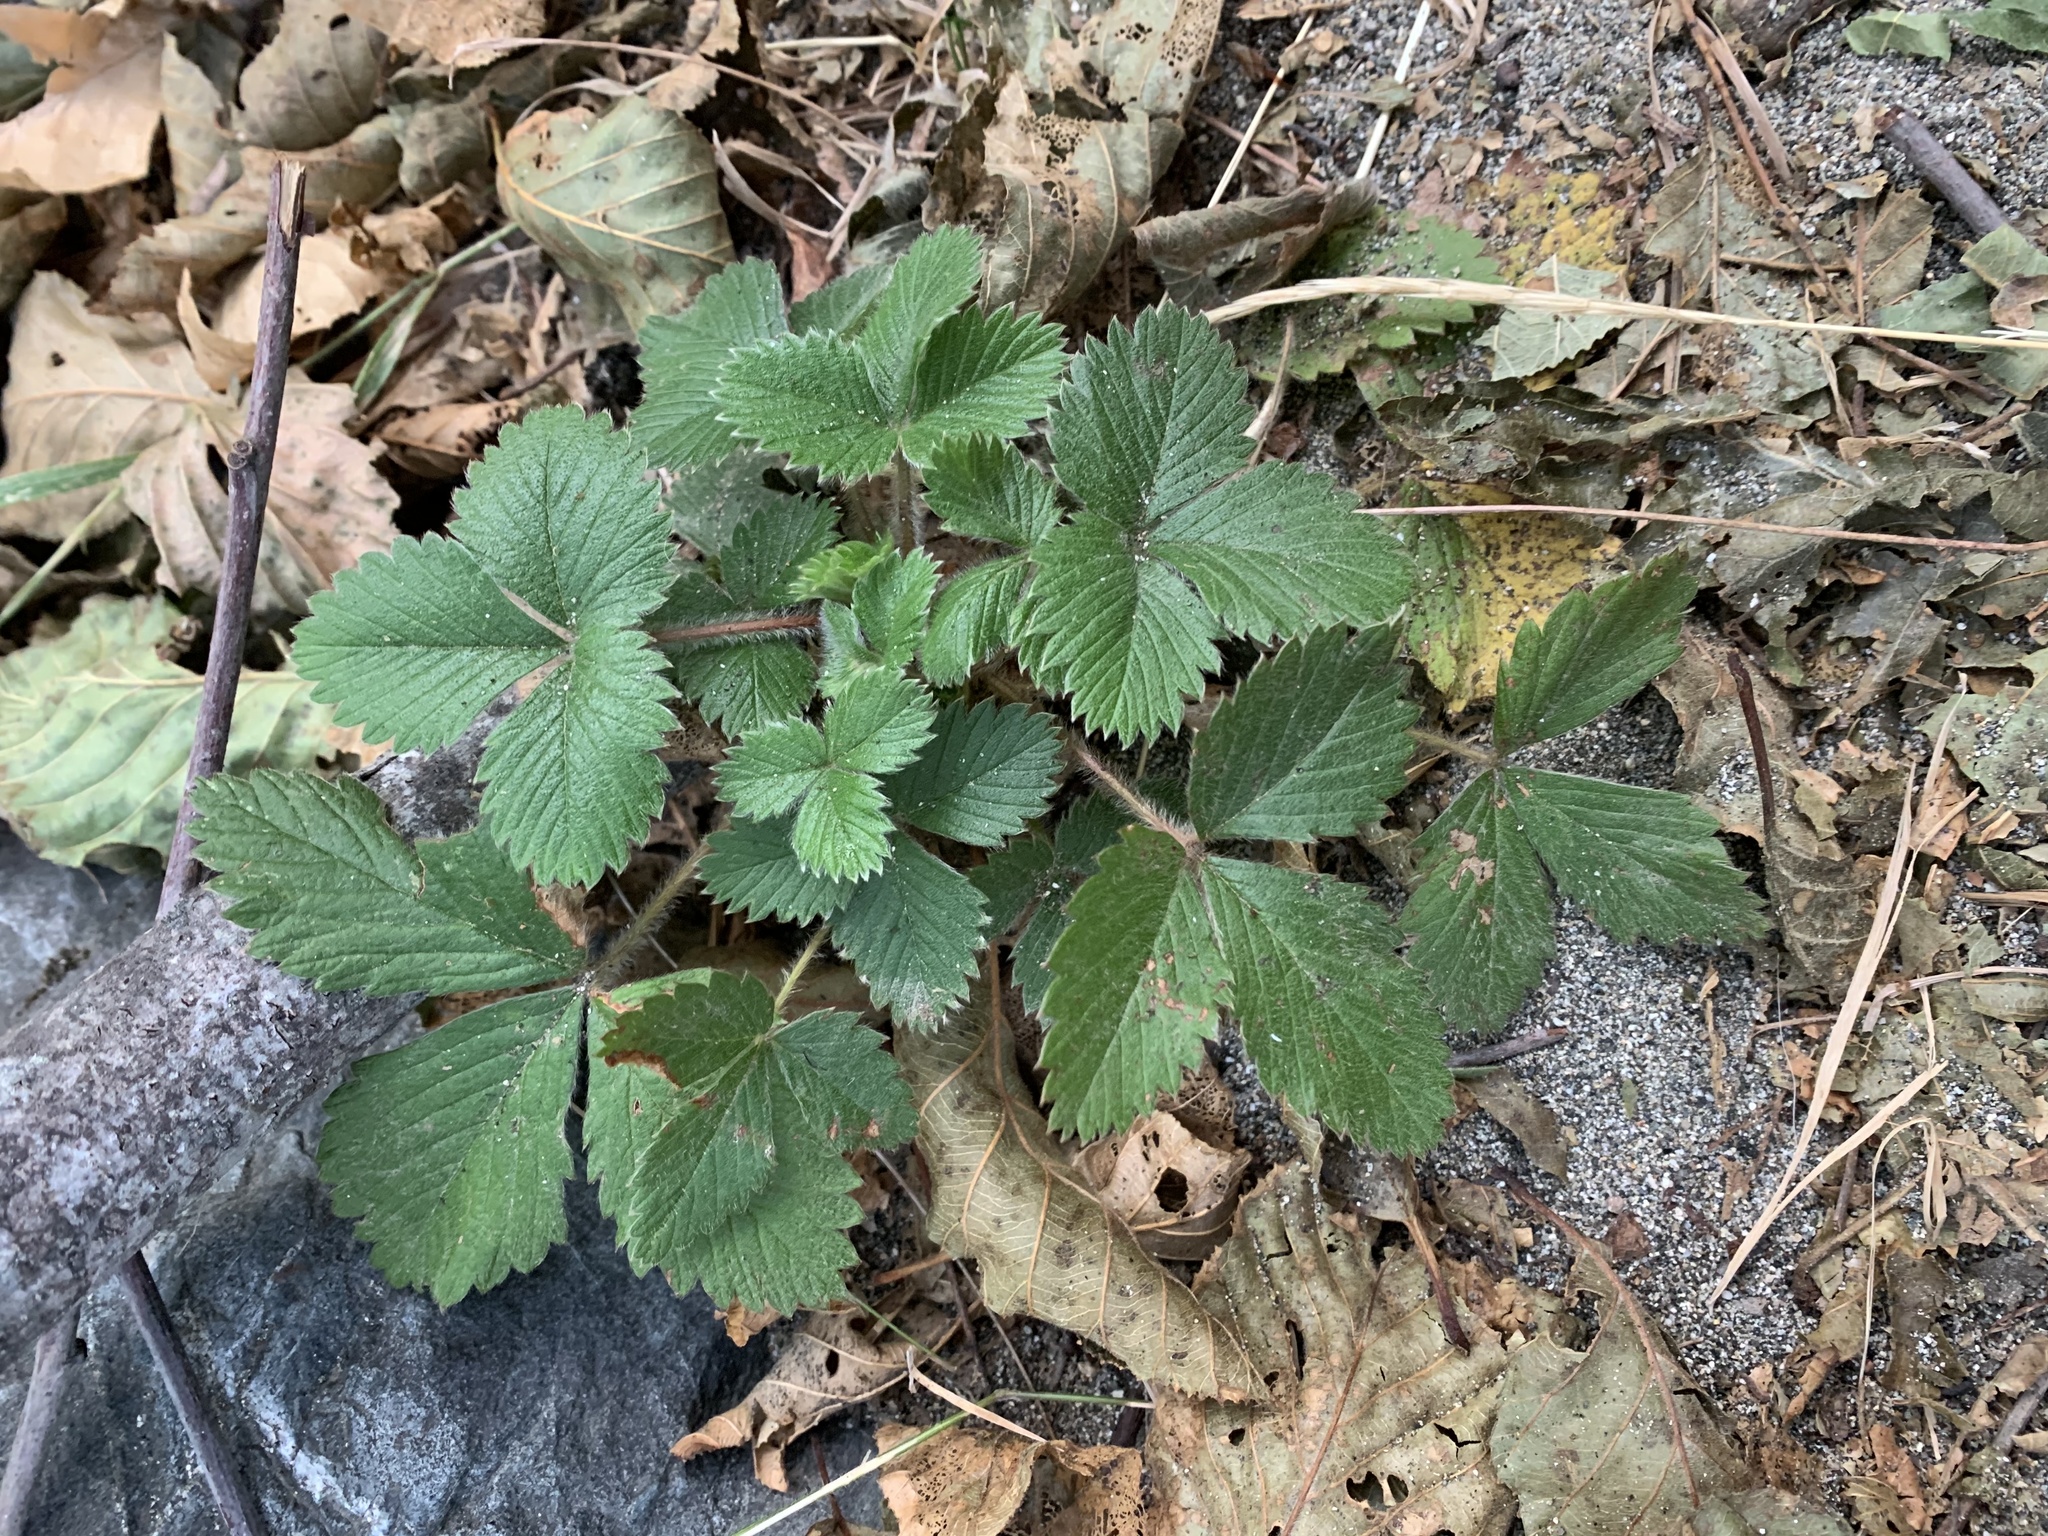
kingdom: Plantae
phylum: Tracheophyta
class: Magnoliopsida
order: Rosales
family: Rosaceae
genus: Fragaria
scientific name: Fragaria vesca
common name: Wild strawberry
